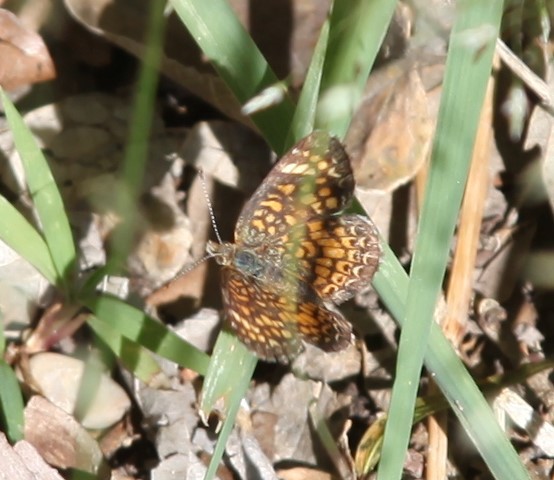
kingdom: Animalia
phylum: Arthropoda
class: Insecta
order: Lepidoptera
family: Nymphalidae
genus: Phyciodes
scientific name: Phyciodes vesta
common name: Vesta crescent
